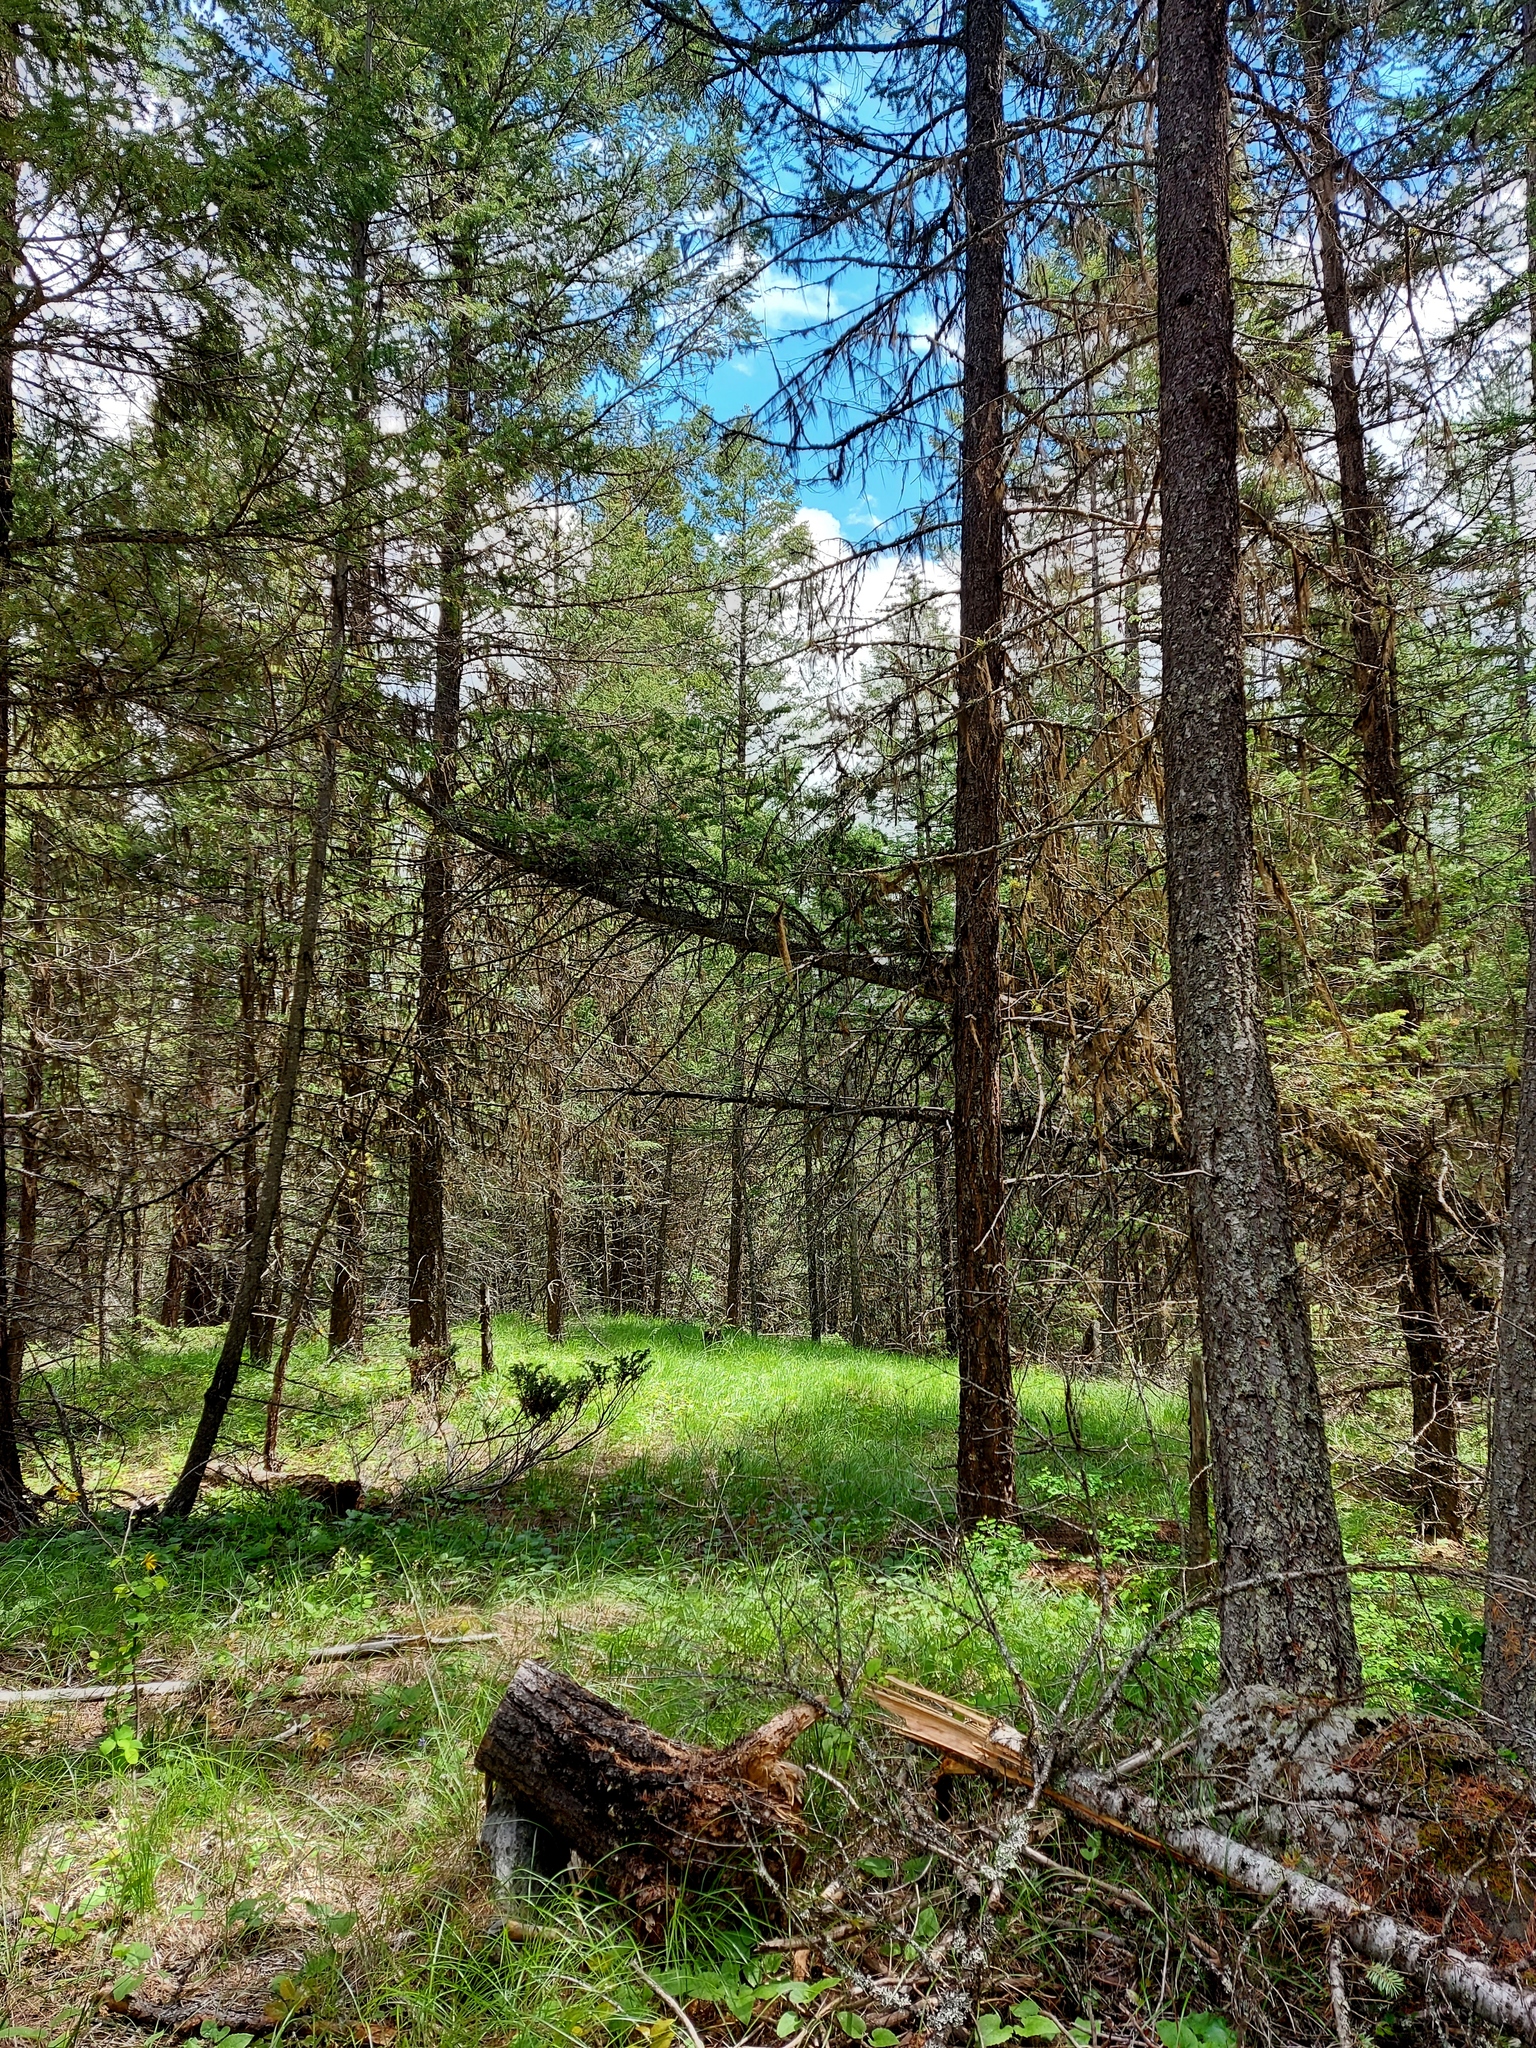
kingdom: Animalia
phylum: Chordata
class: Aves
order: Passeriformes
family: Cardinalidae
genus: Piranga
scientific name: Piranga ludoviciana
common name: Western tanager
